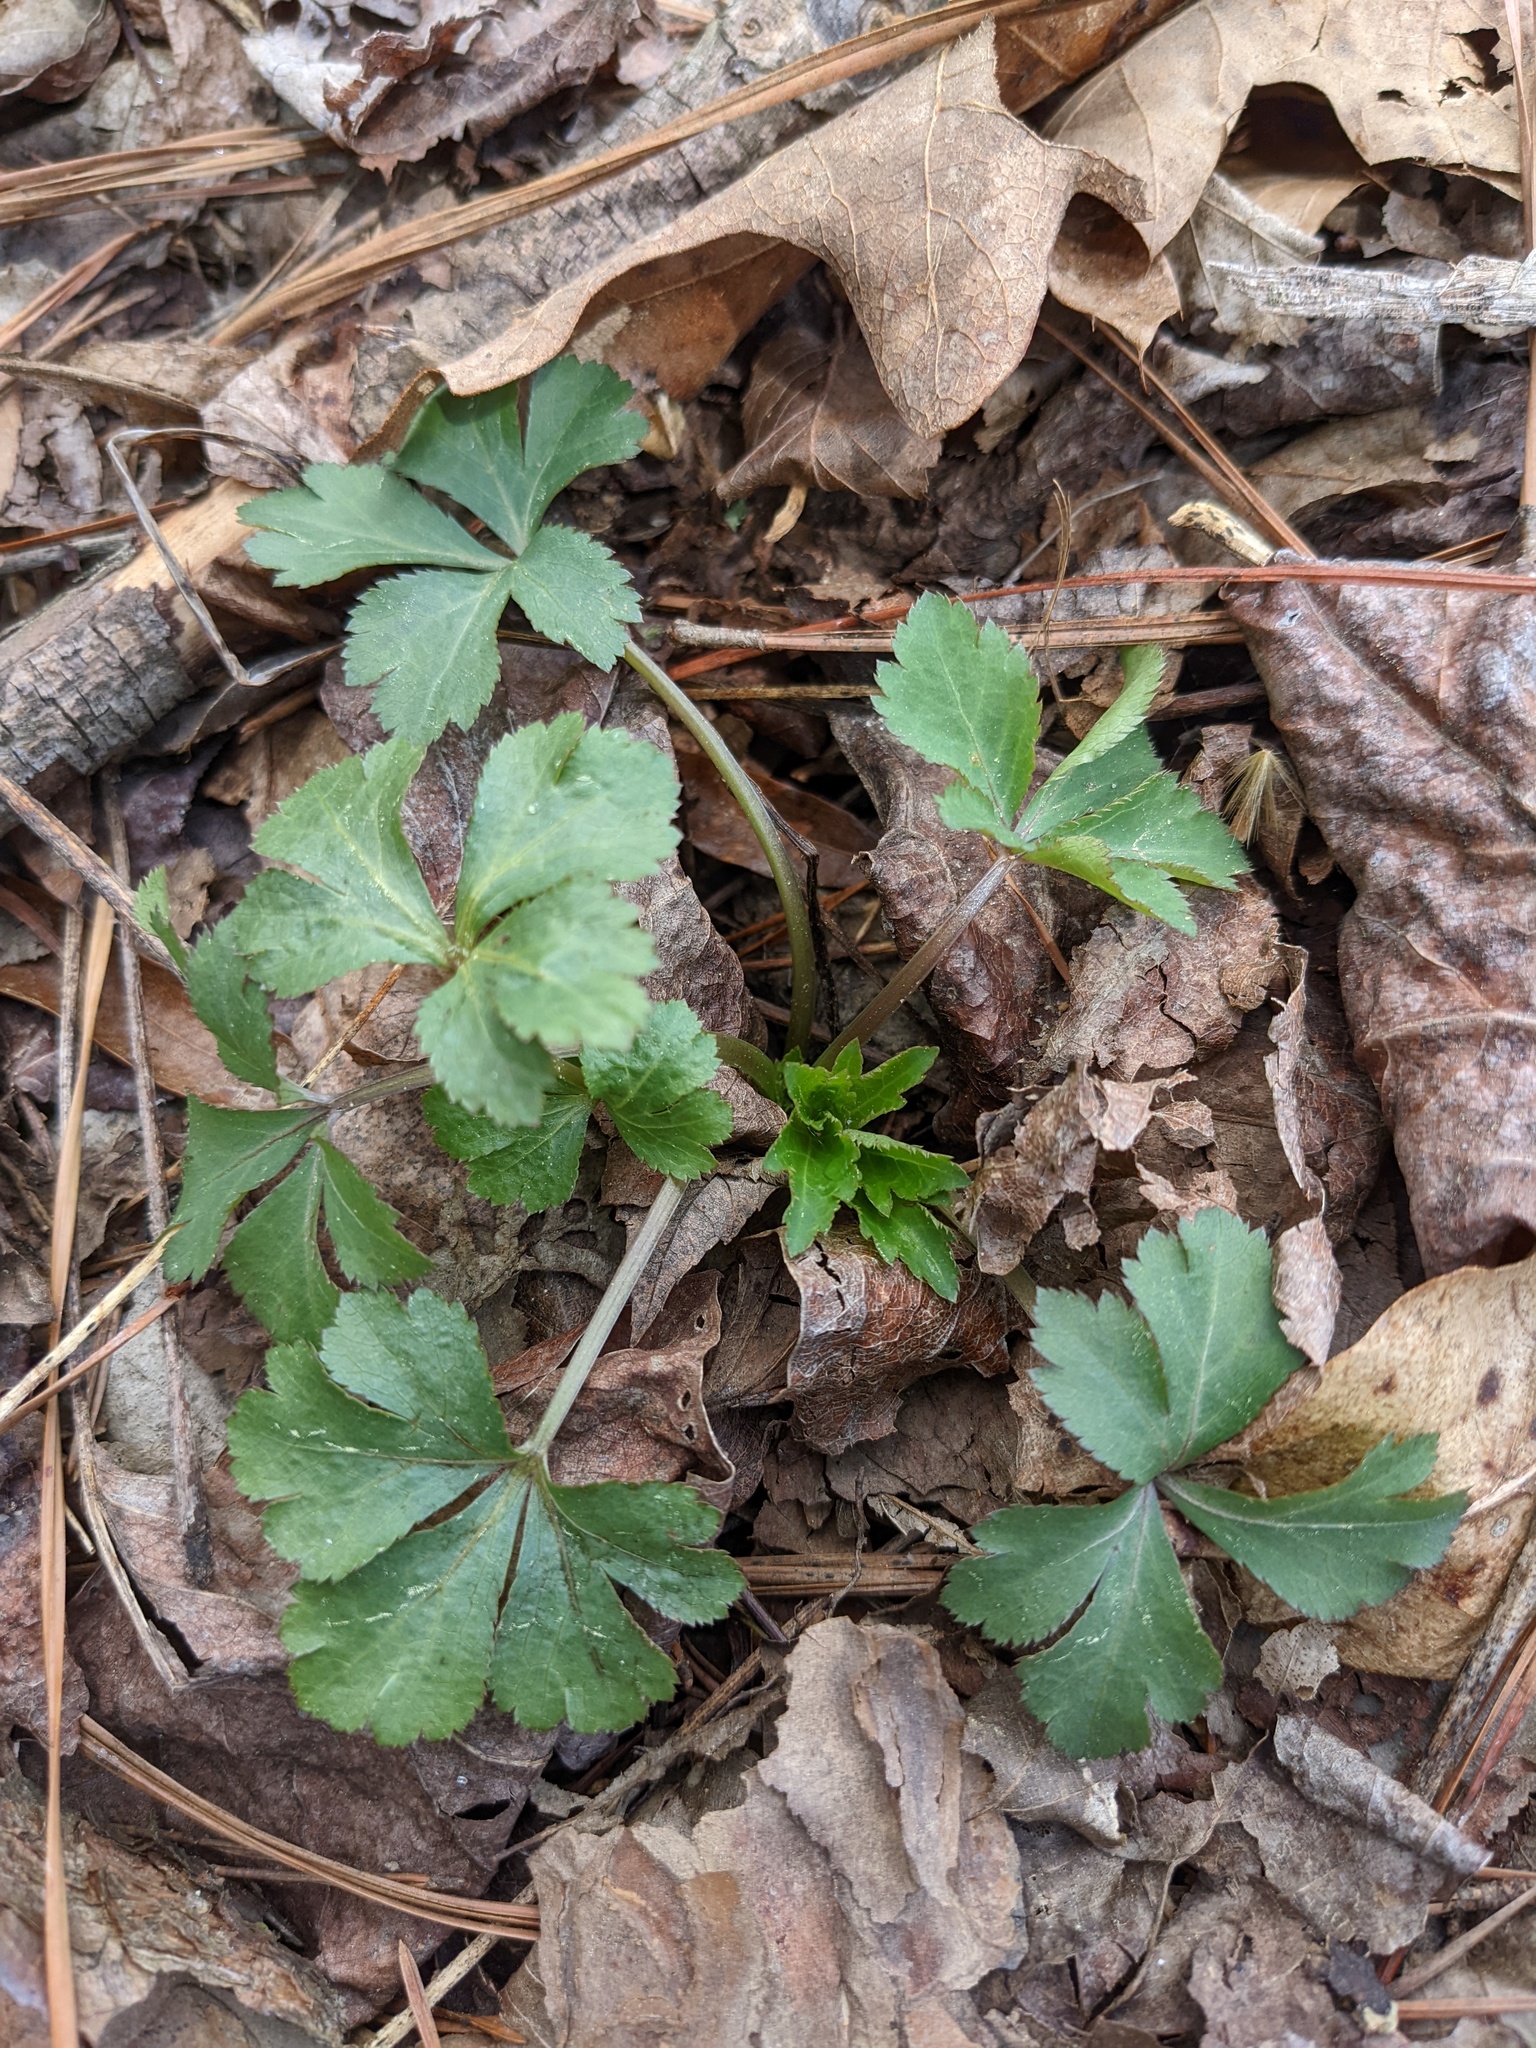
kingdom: Plantae
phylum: Tracheophyta
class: Magnoliopsida
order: Apiales
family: Apiaceae
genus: Sanicula
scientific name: Sanicula canadensis
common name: Canada sanicle
